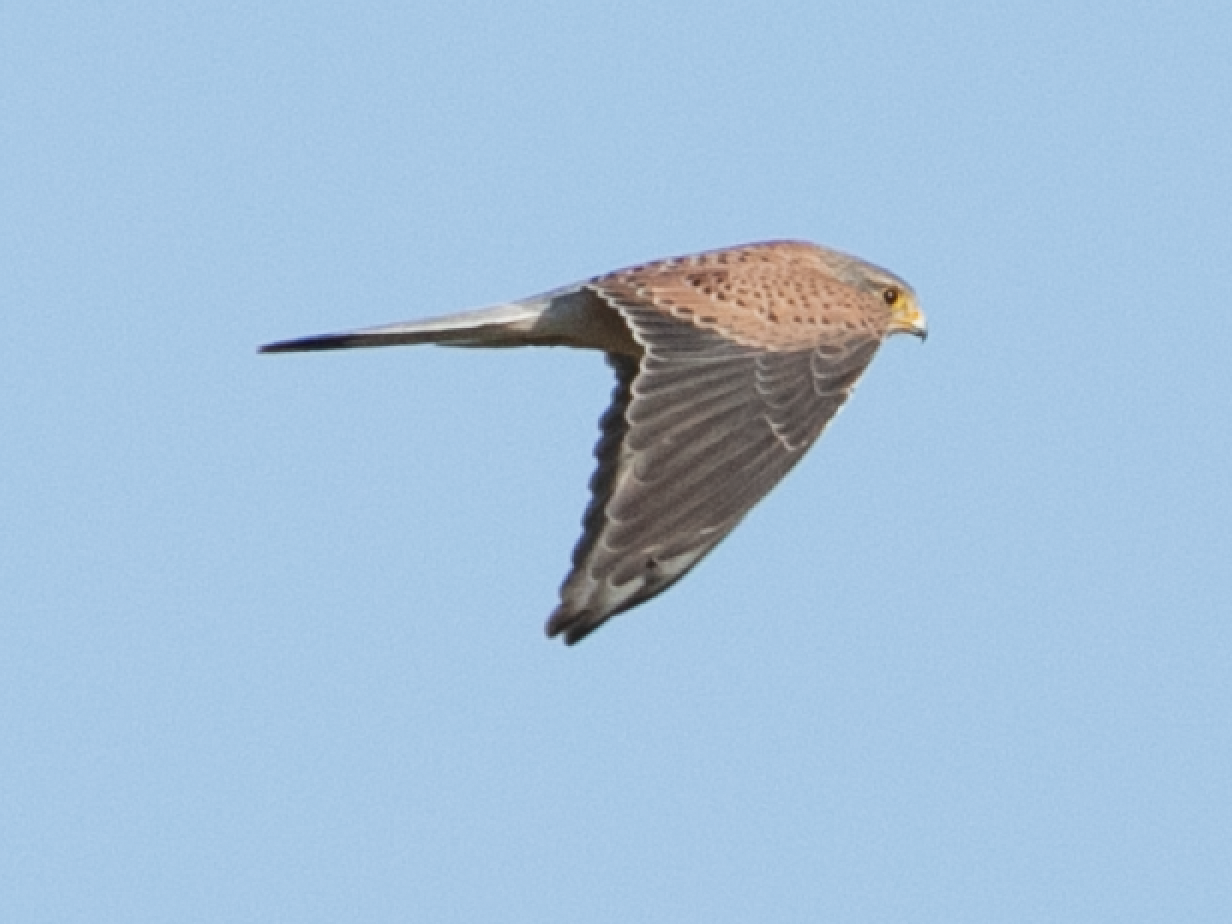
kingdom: Animalia
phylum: Chordata
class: Aves
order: Falconiformes
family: Falconidae
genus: Falco
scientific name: Falco tinnunculus
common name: Common kestrel
